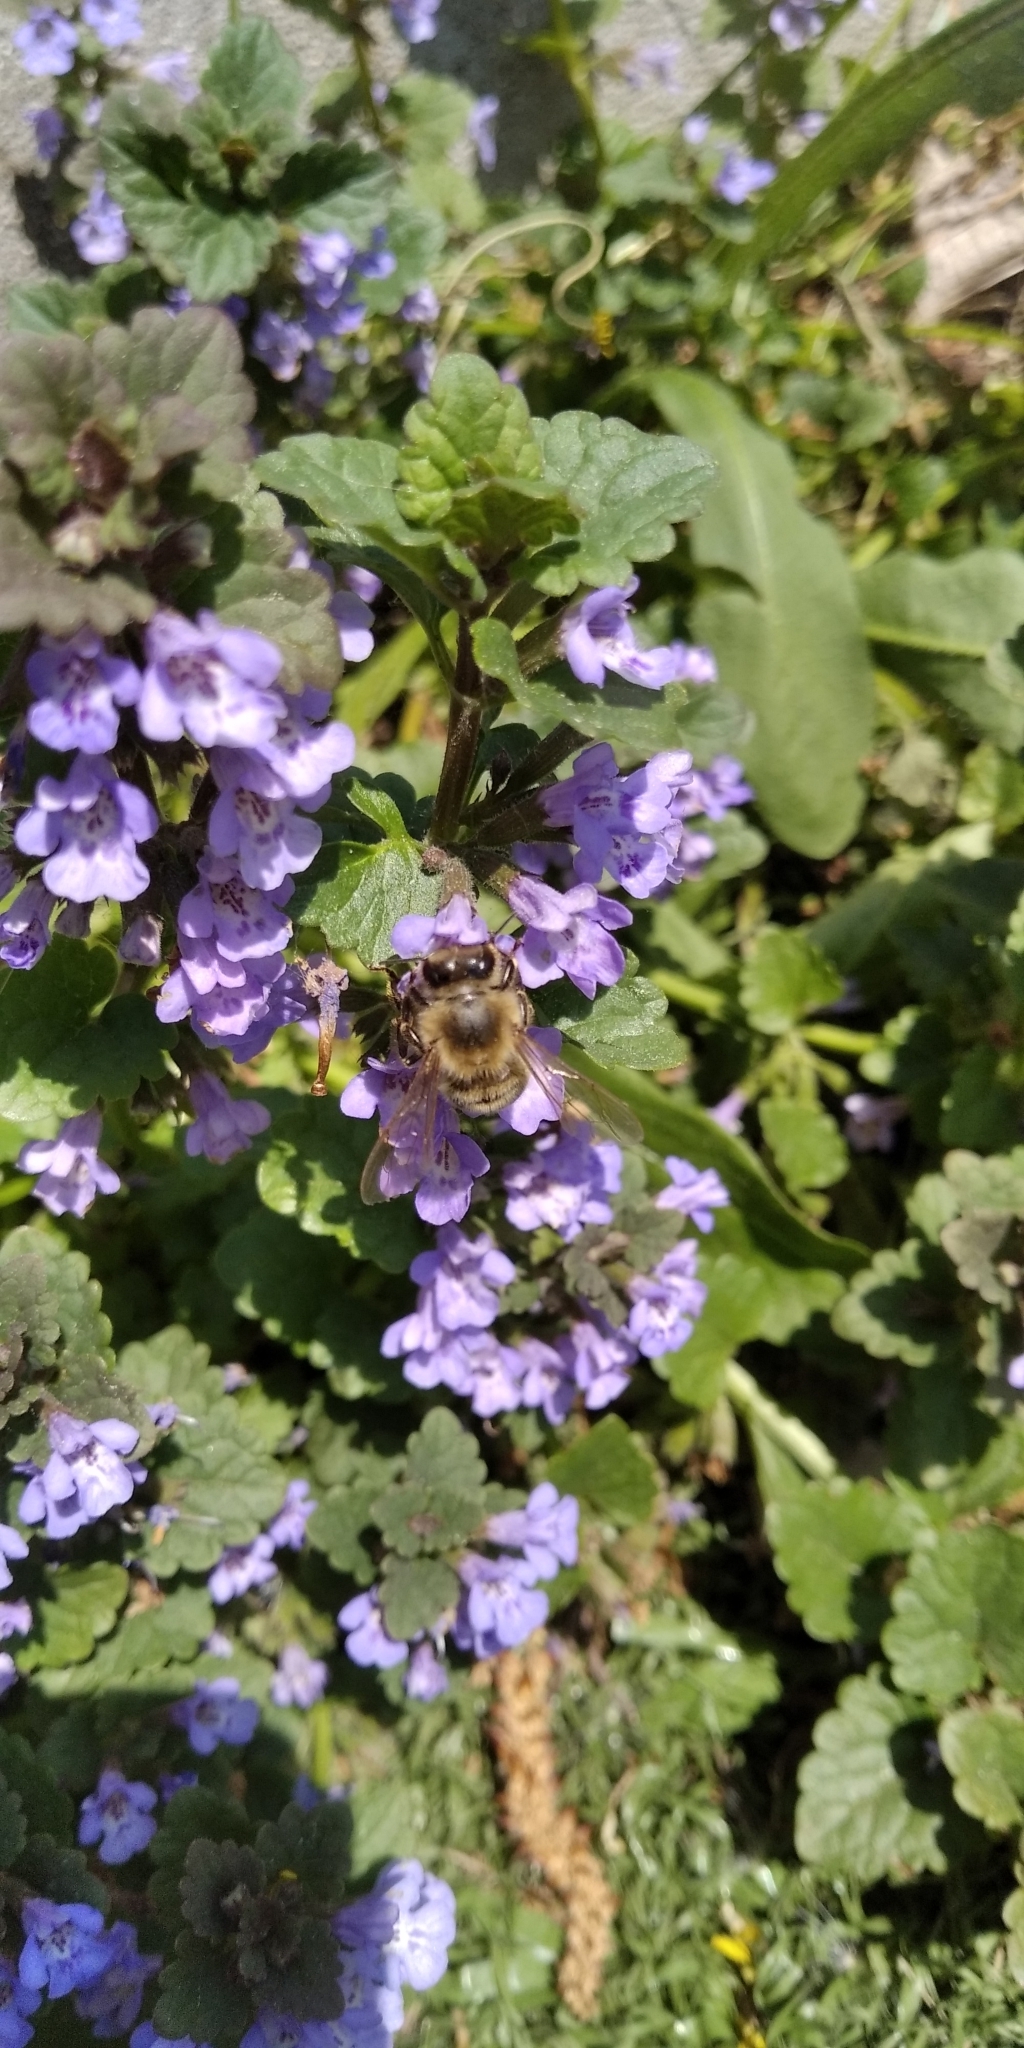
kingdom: Plantae
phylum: Tracheophyta
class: Magnoliopsida
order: Lamiales
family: Lamiaceae
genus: Glechoma
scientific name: Glechoma hederacea
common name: Ground ivy
